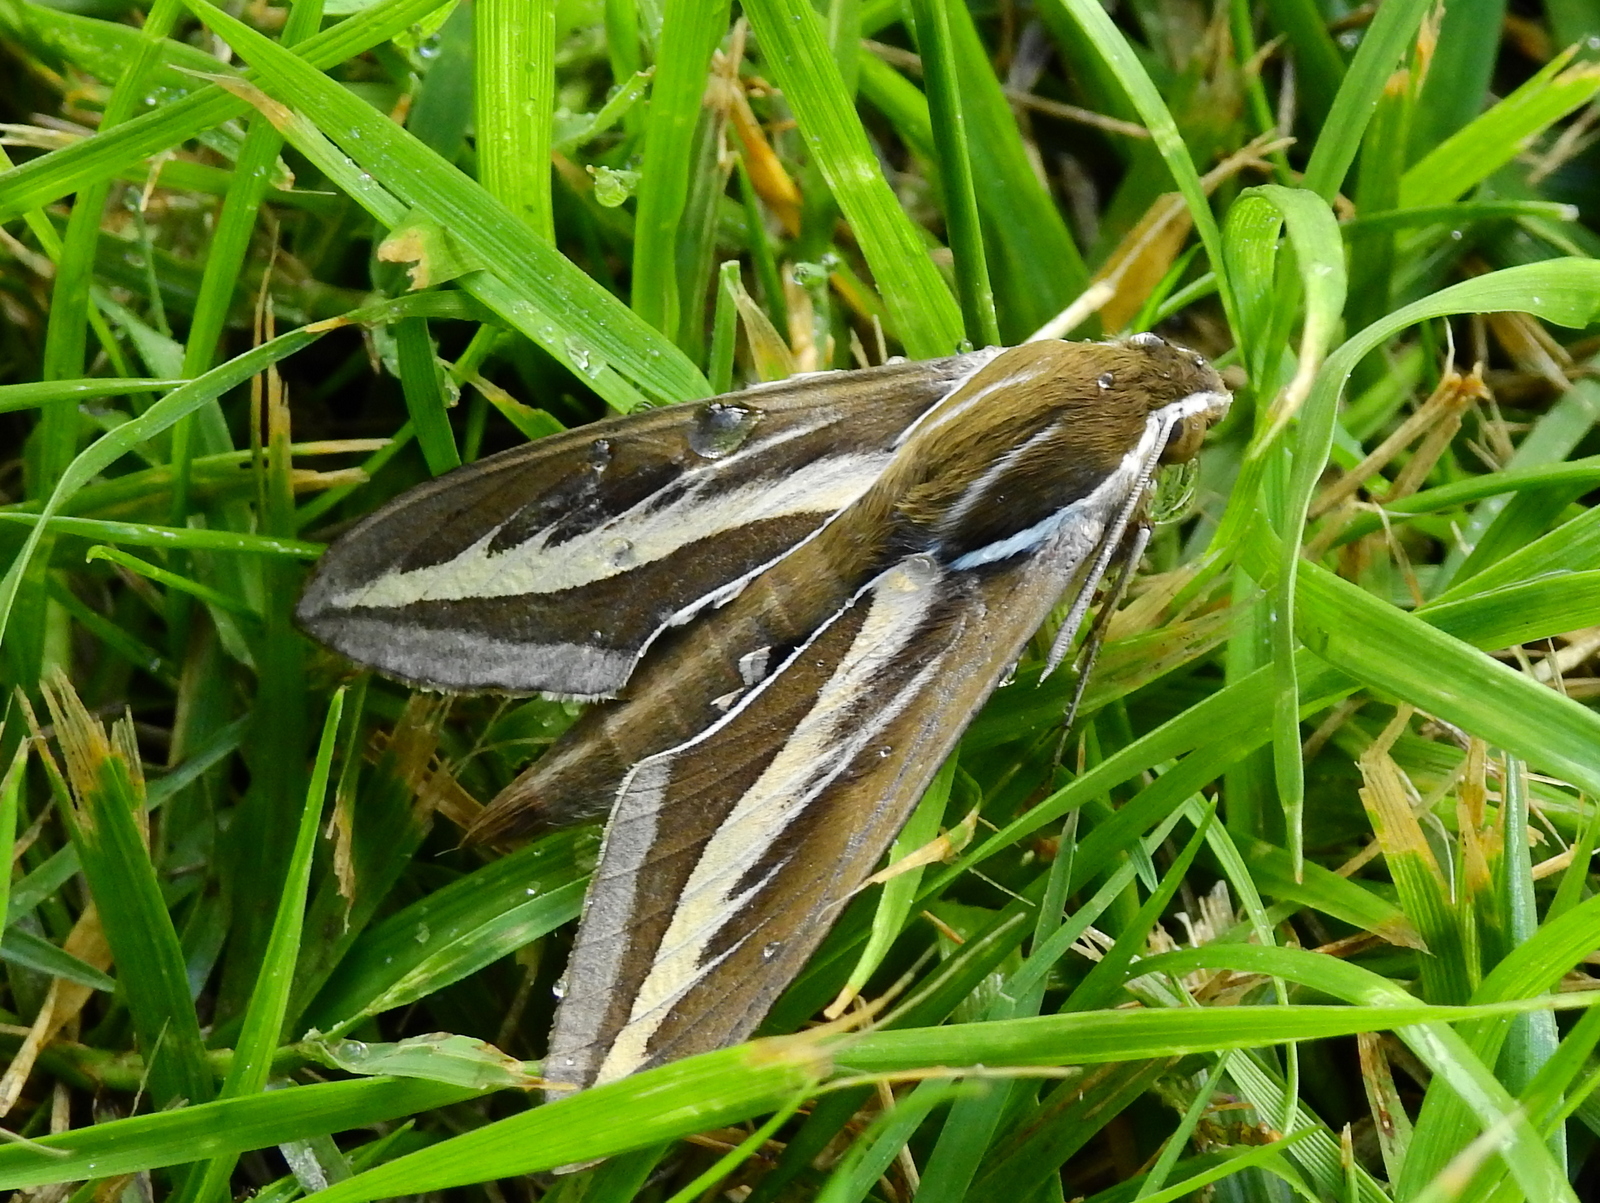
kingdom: Animalia
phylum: Arthropoda
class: Insecta
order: Lepidoptera
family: Sphingidae
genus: Hyles
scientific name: Hyles euphorbiarum
